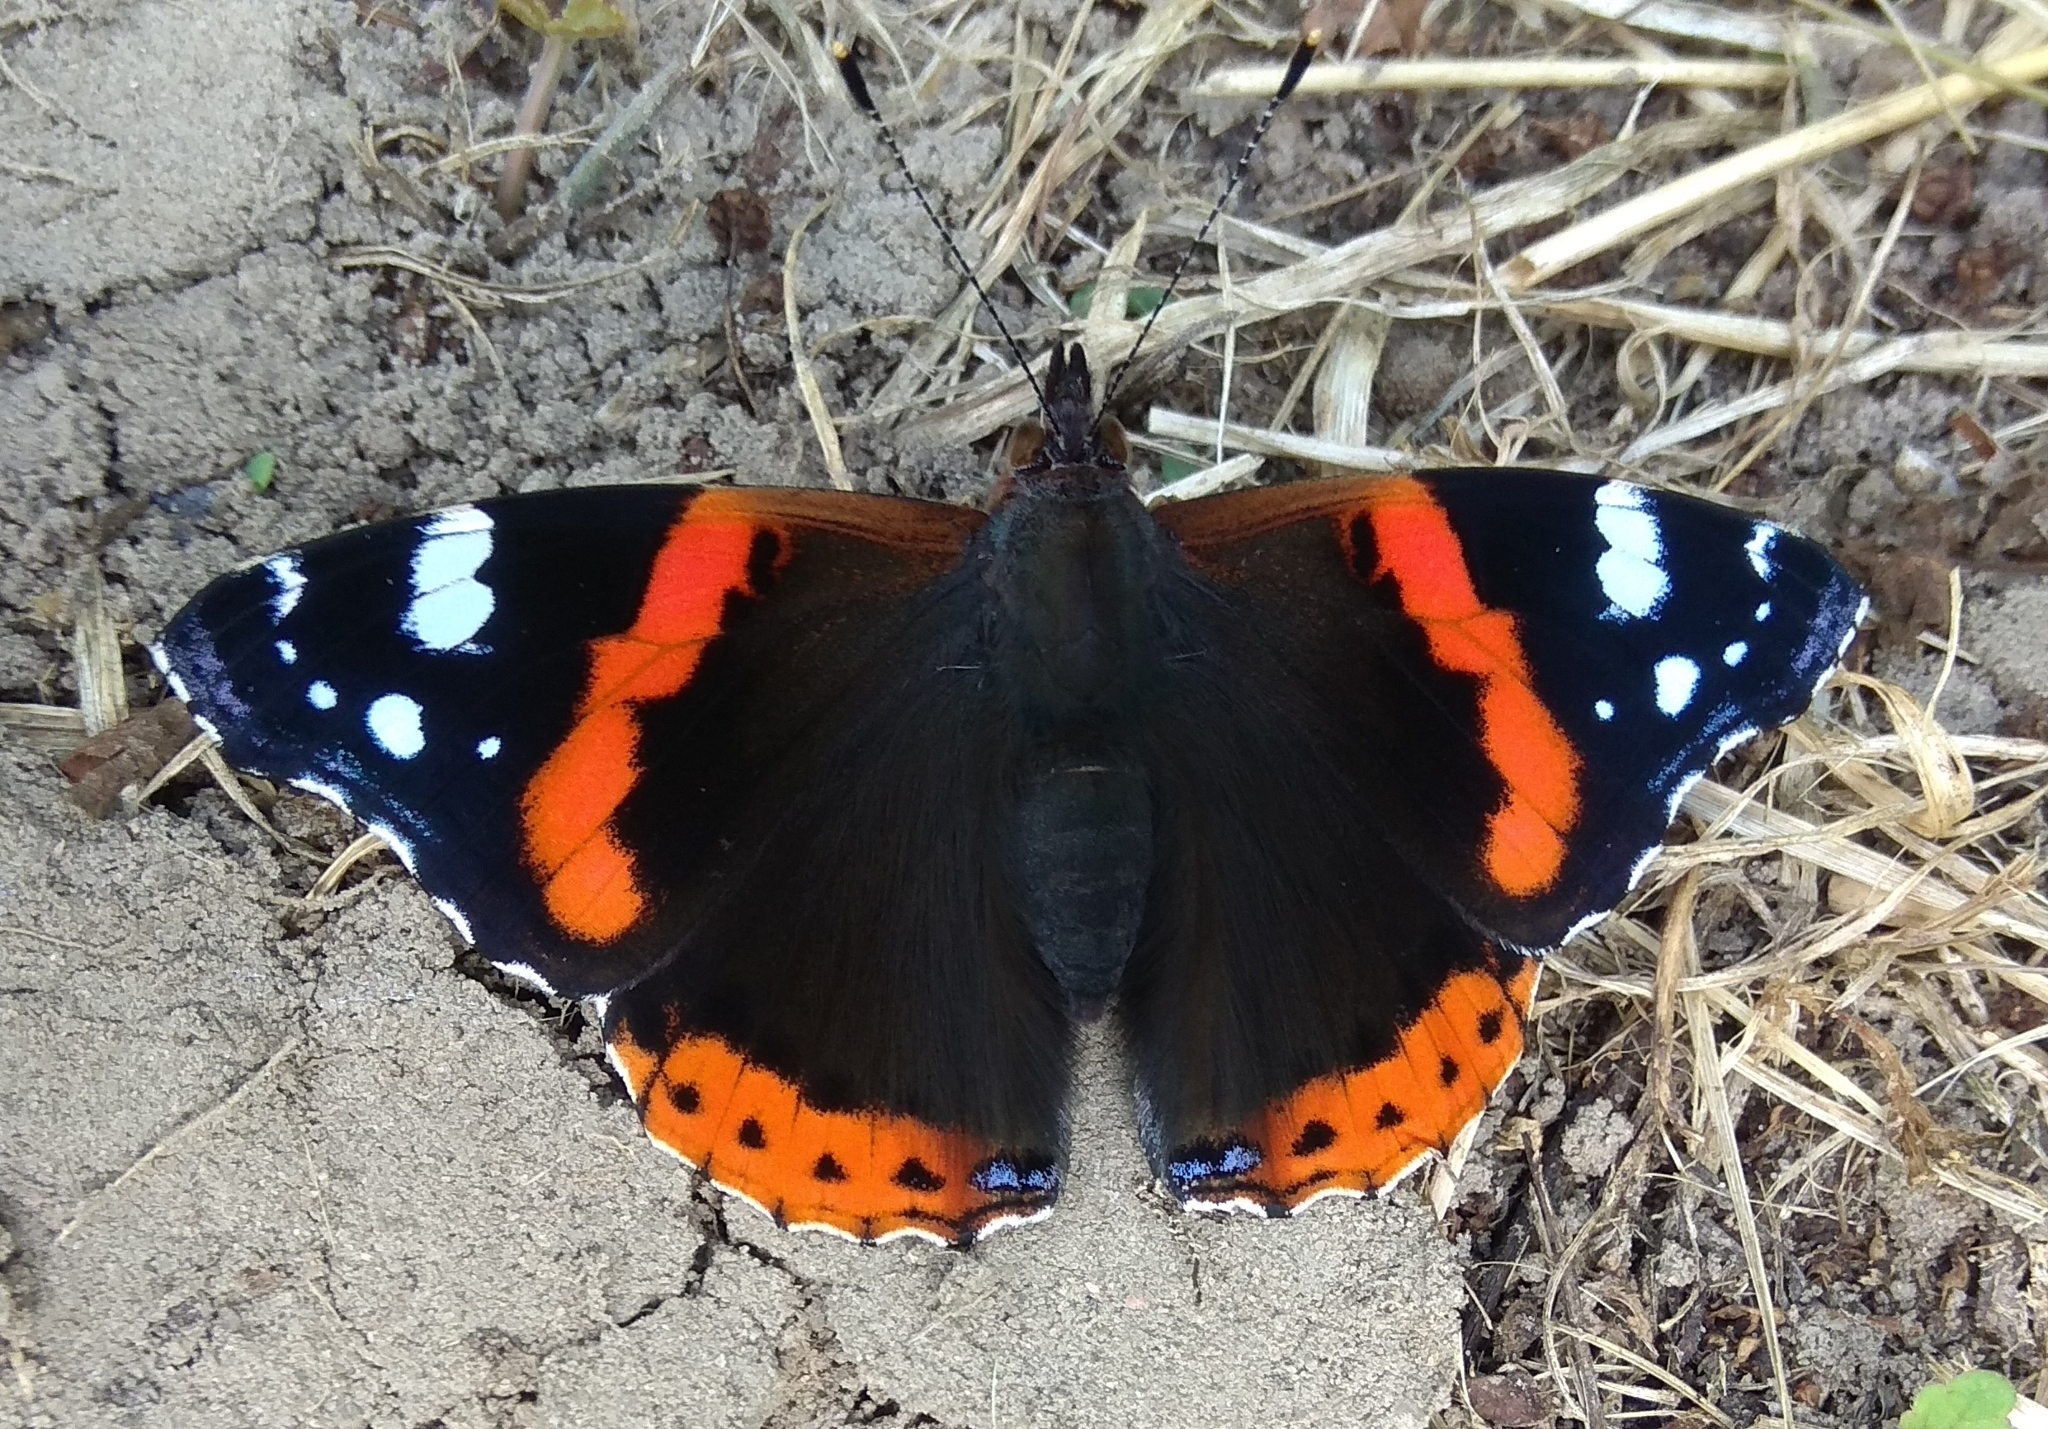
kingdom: Animalia
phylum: Arthropoda
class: Insecta
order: Lepidoptera
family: Nymphalidae
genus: Vanessa
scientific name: Vanessa atalanta
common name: Red admiral
